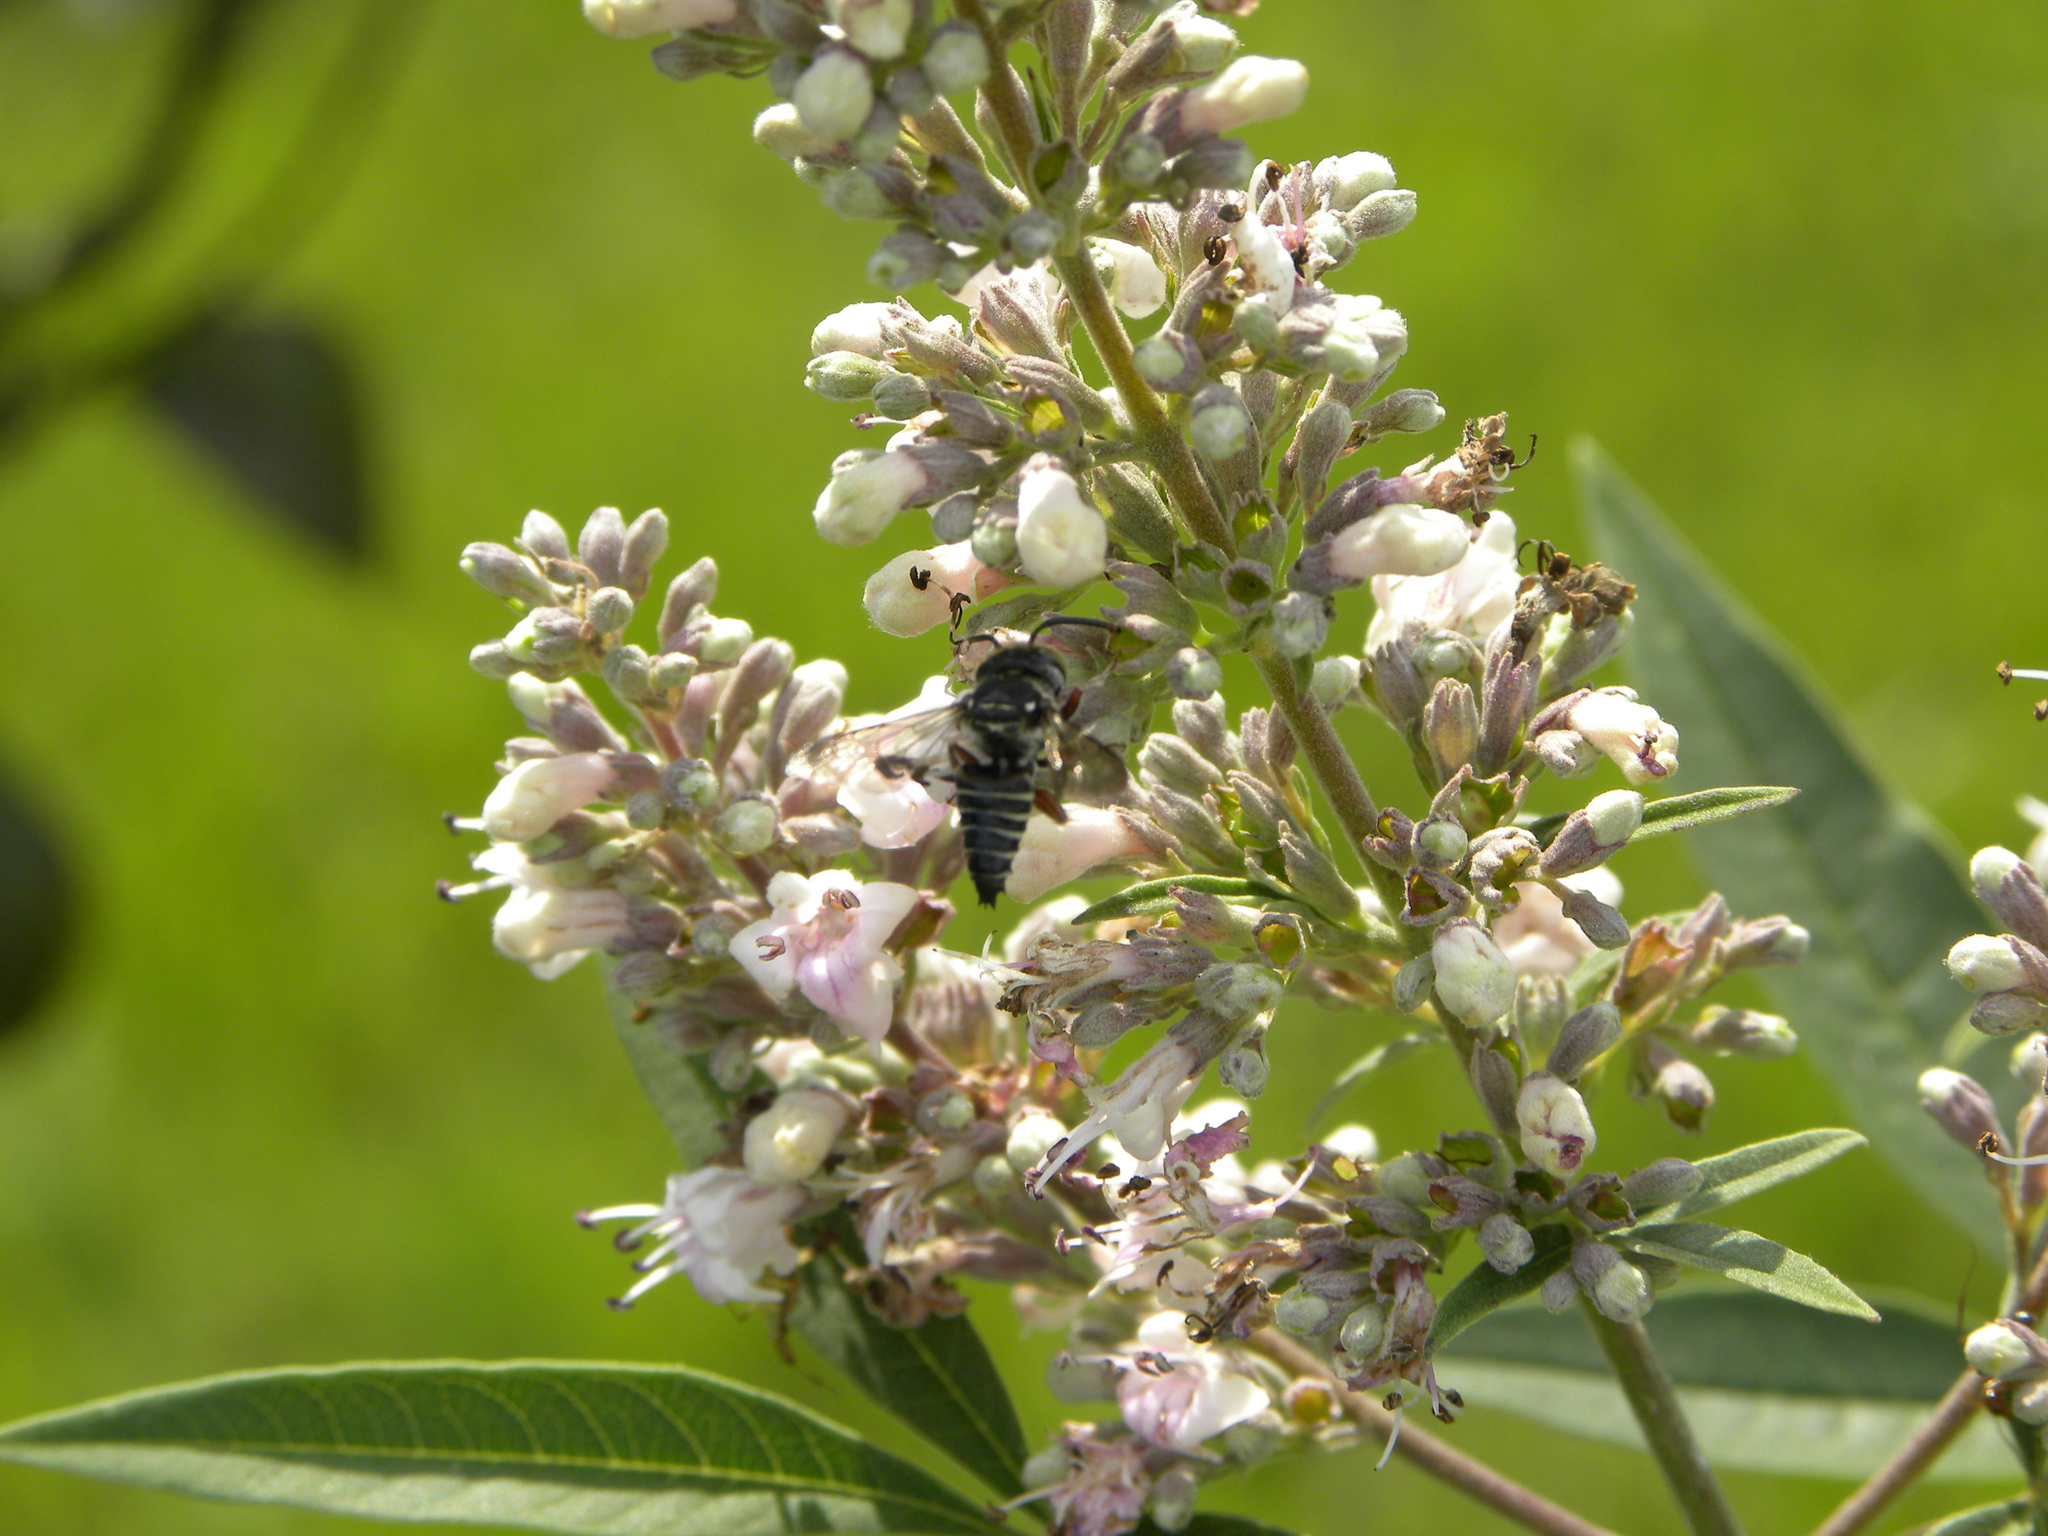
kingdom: Animalia
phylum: Arthropoda
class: Insecta
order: Hymenoptera
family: Megachilidae
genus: Boreocoelioxys
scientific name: Boreocoelioxys
